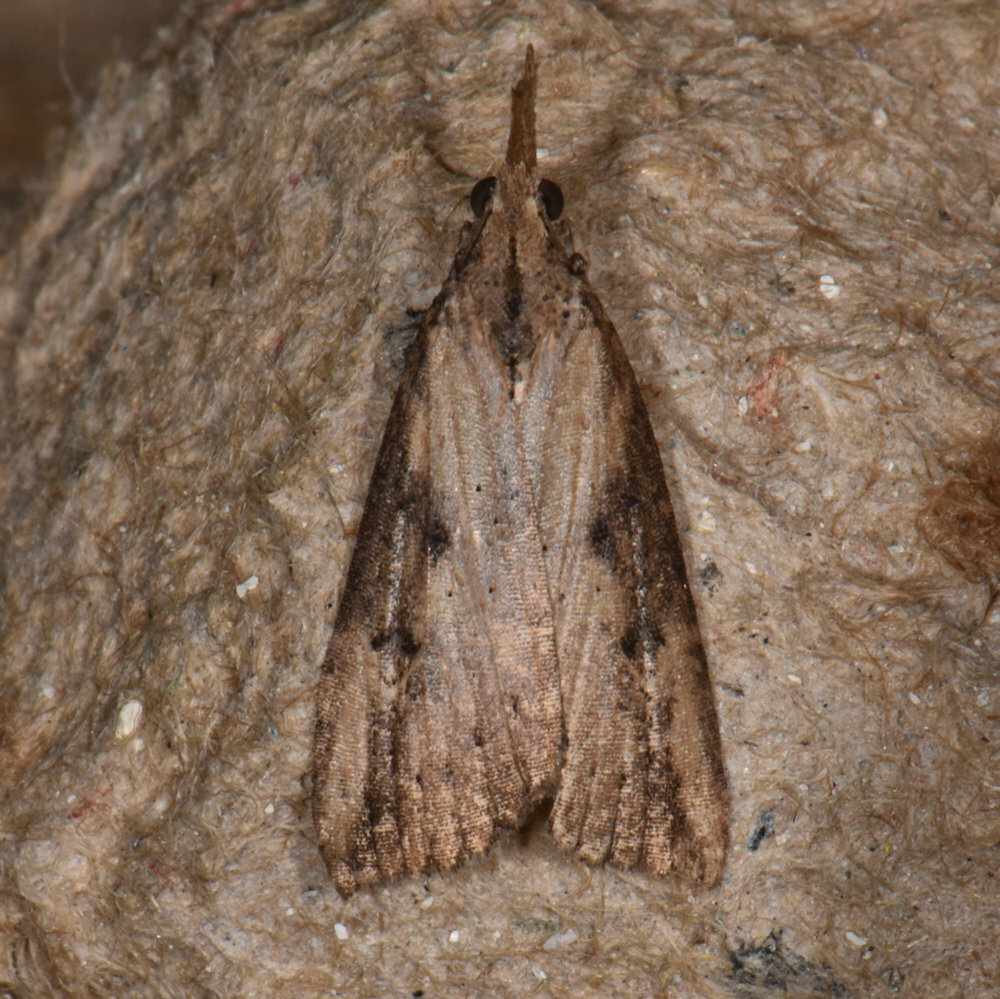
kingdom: Animalia
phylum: Arthropoda
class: Insecta
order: Lepidoptera
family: Erebidae
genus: Hypena
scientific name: Hypena humuli
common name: Hop vine snout
